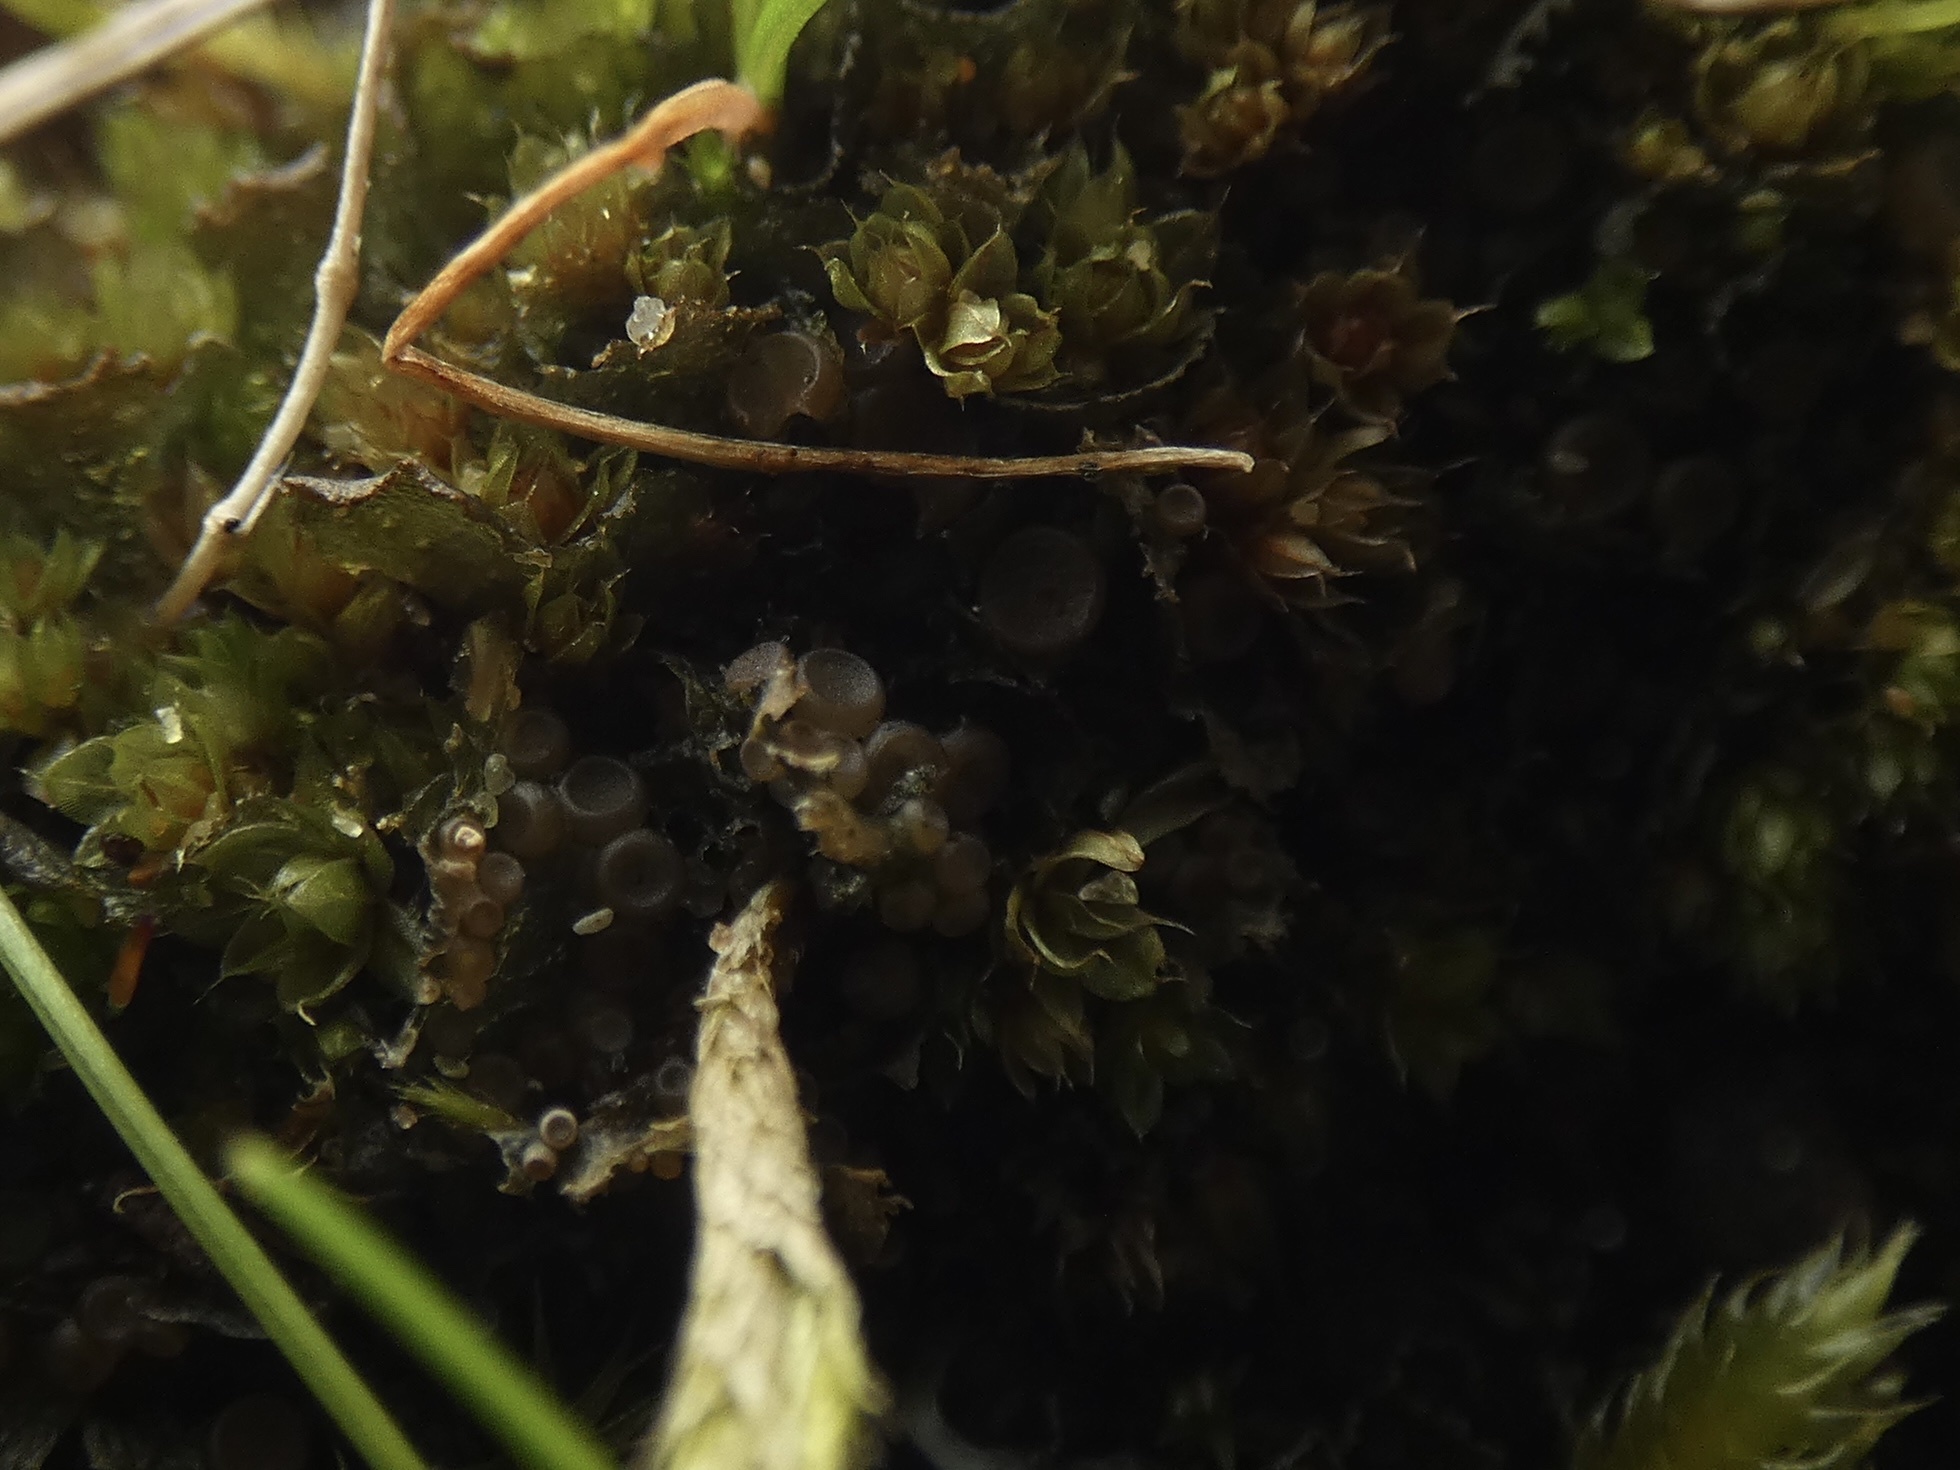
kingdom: Fungi
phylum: Ascomycota
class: Lecanoromycetes
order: Peltigerales
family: Collemataceae
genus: Scytinium
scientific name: Scytinium gelatinosum
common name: Rose-petalled jellyskin lichen
